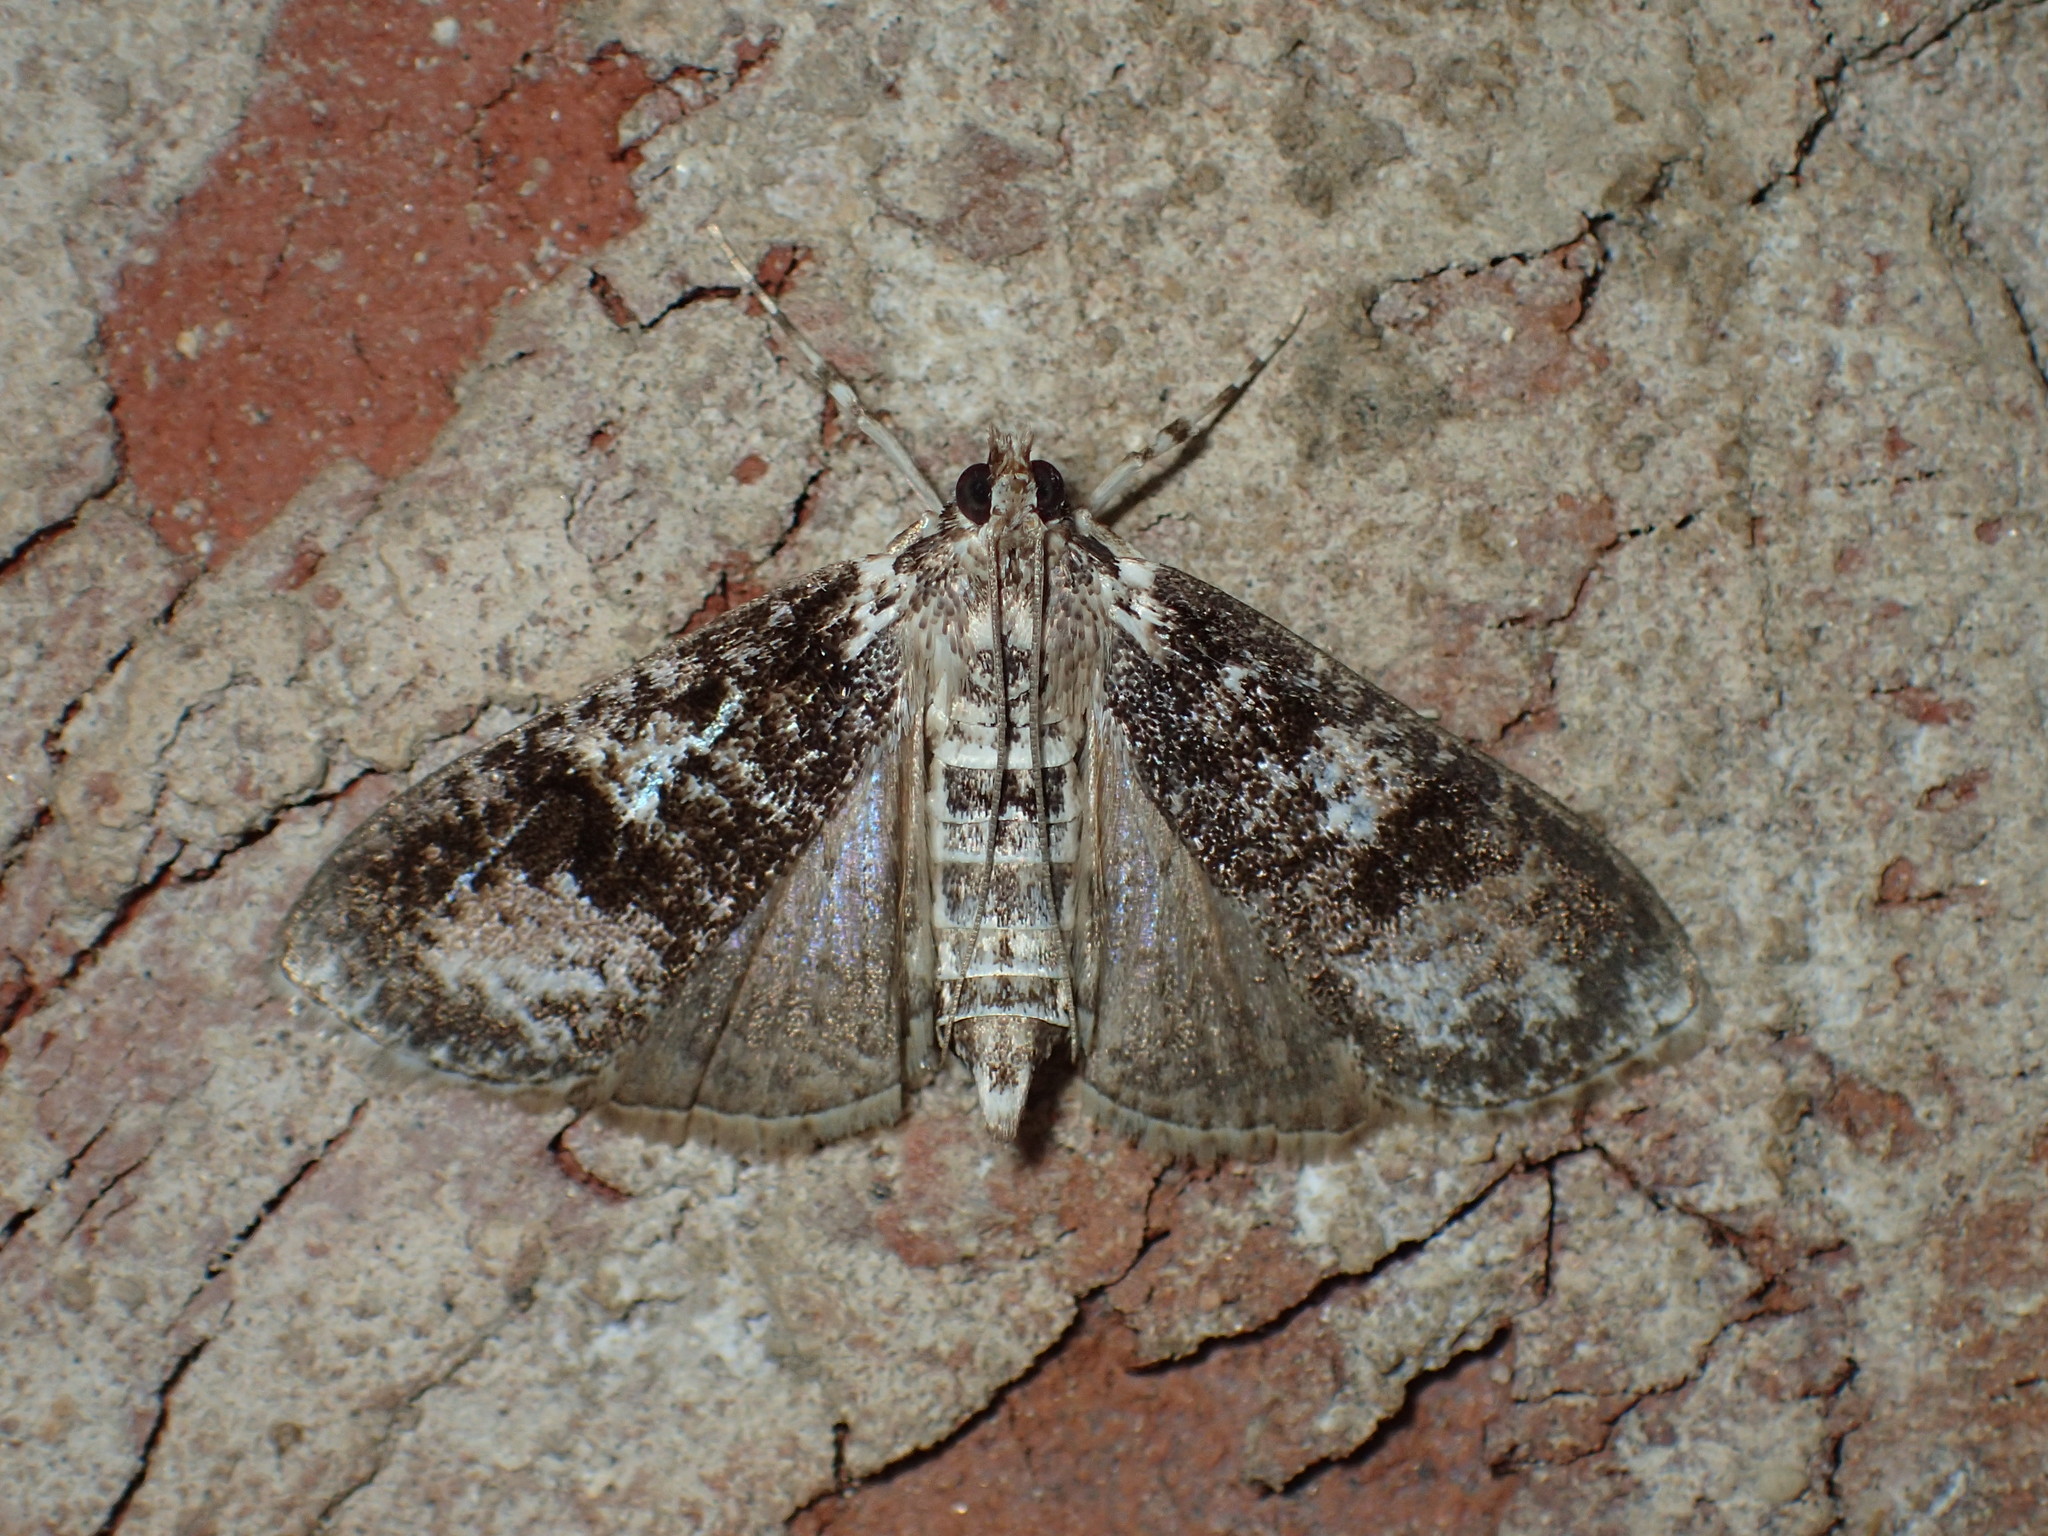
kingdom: Animalia
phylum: Arthropoda
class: Insecta
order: Lepidoptera
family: Crambidae
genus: Palpita
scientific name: Palpita magniferalis
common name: Splendid palpita moth
